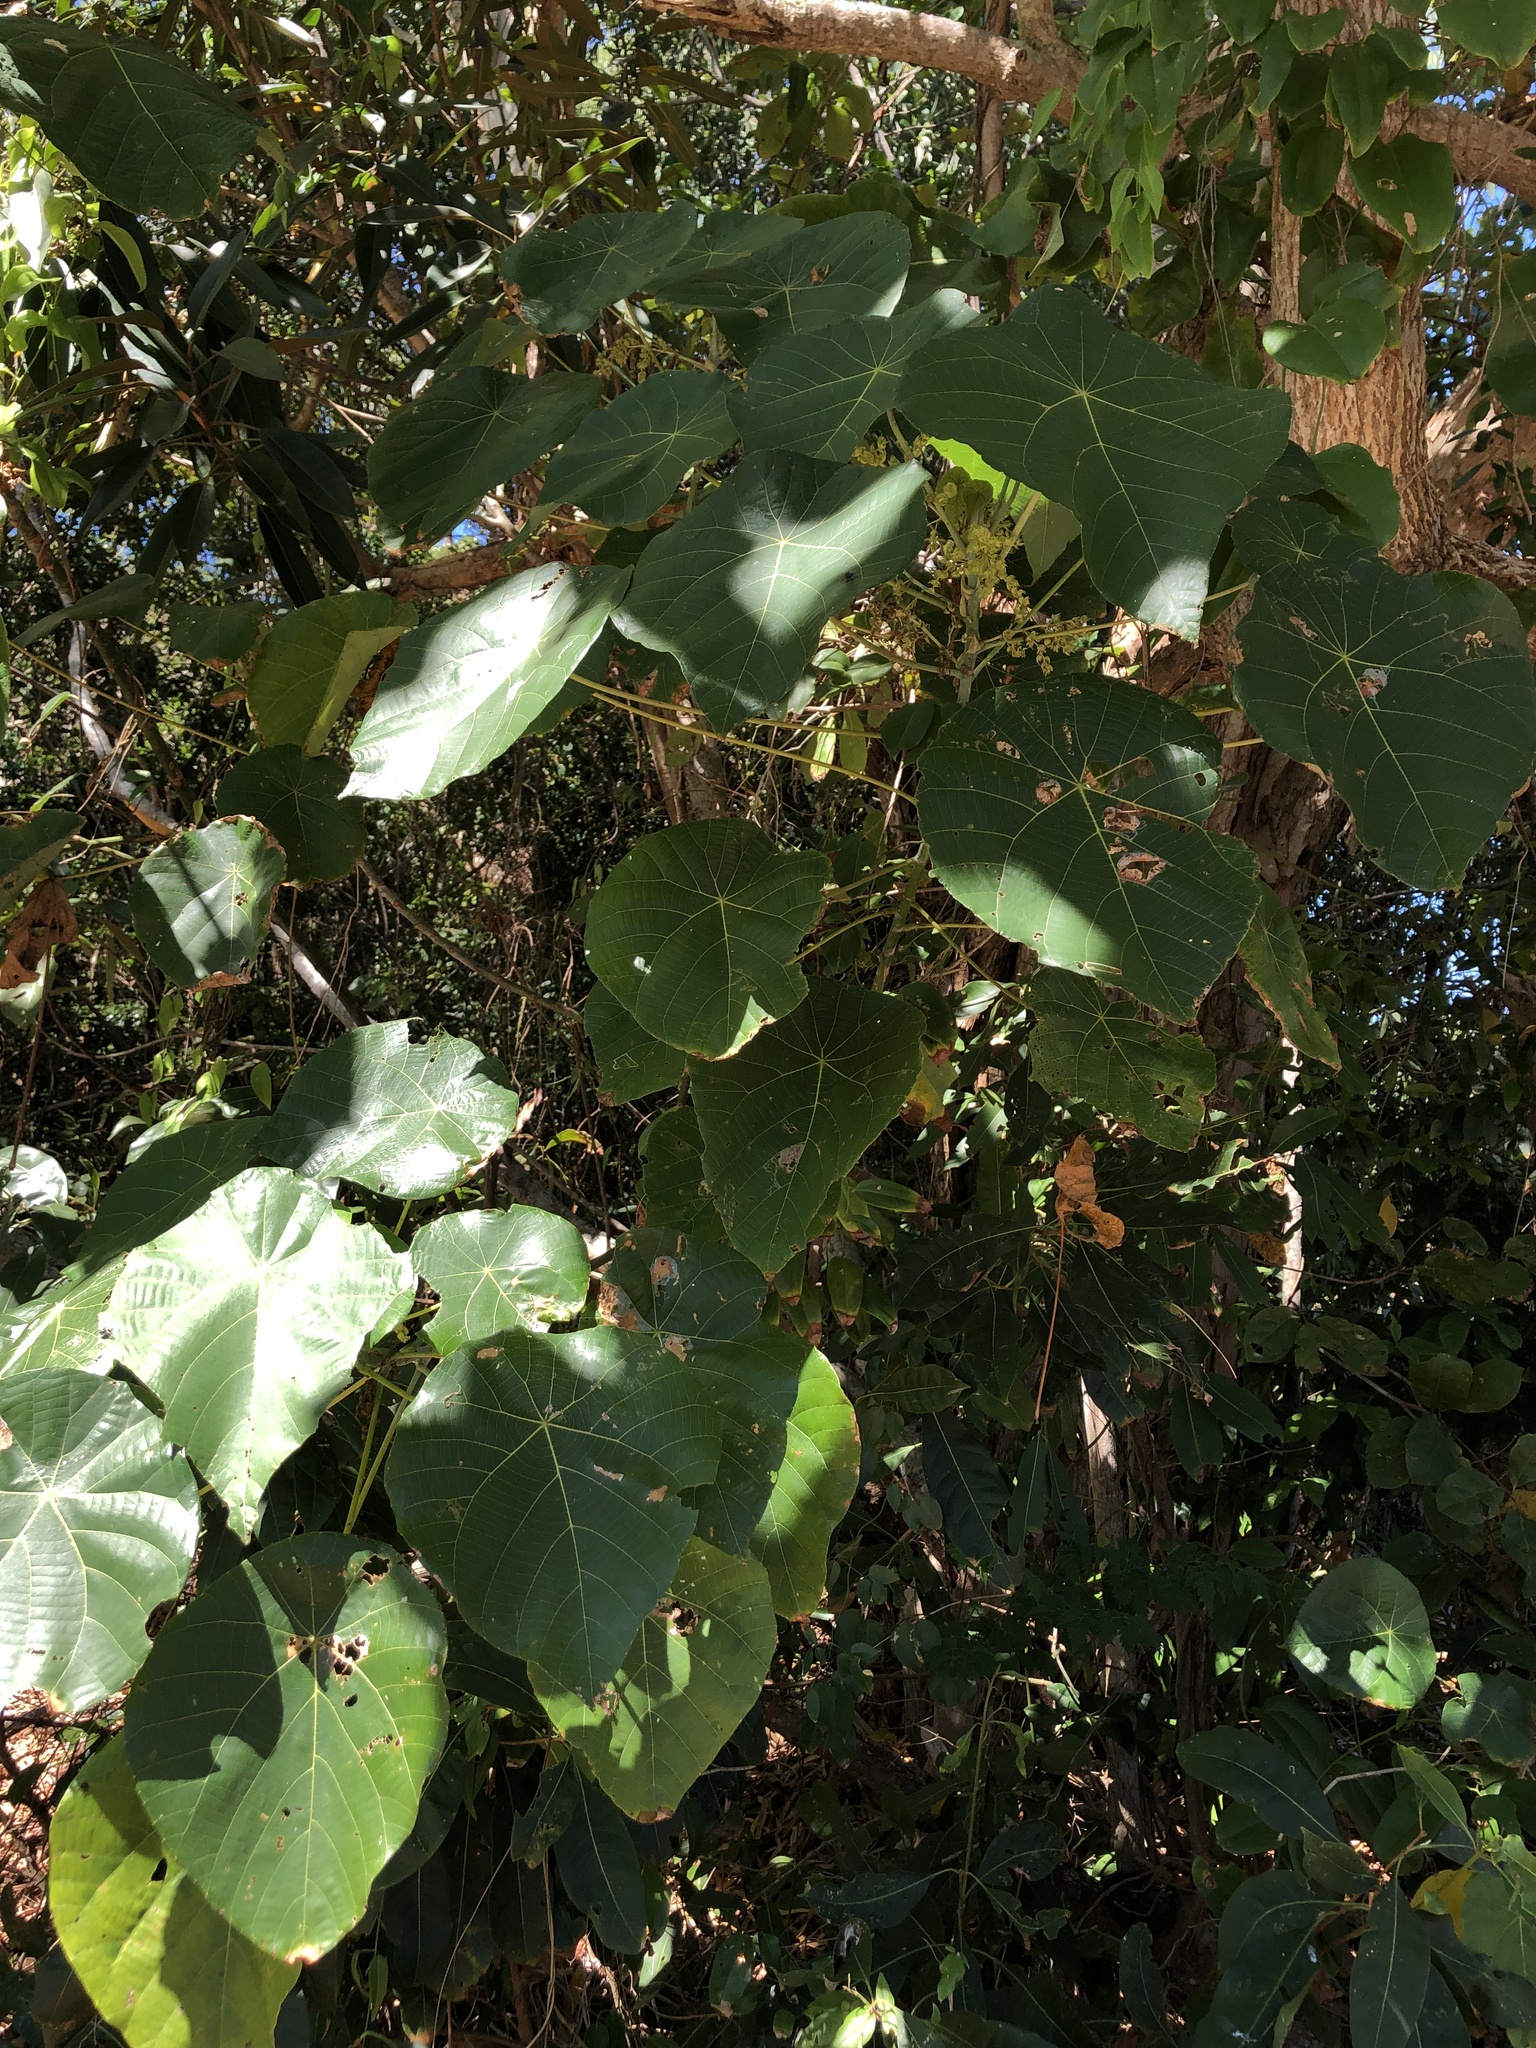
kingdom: Plantae
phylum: Tracheophyta
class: Magnoliopsida
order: Lamiales
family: Bignoniaceae
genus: Deplanchea
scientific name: Deplanchea tetraphylla
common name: Deplanchea
